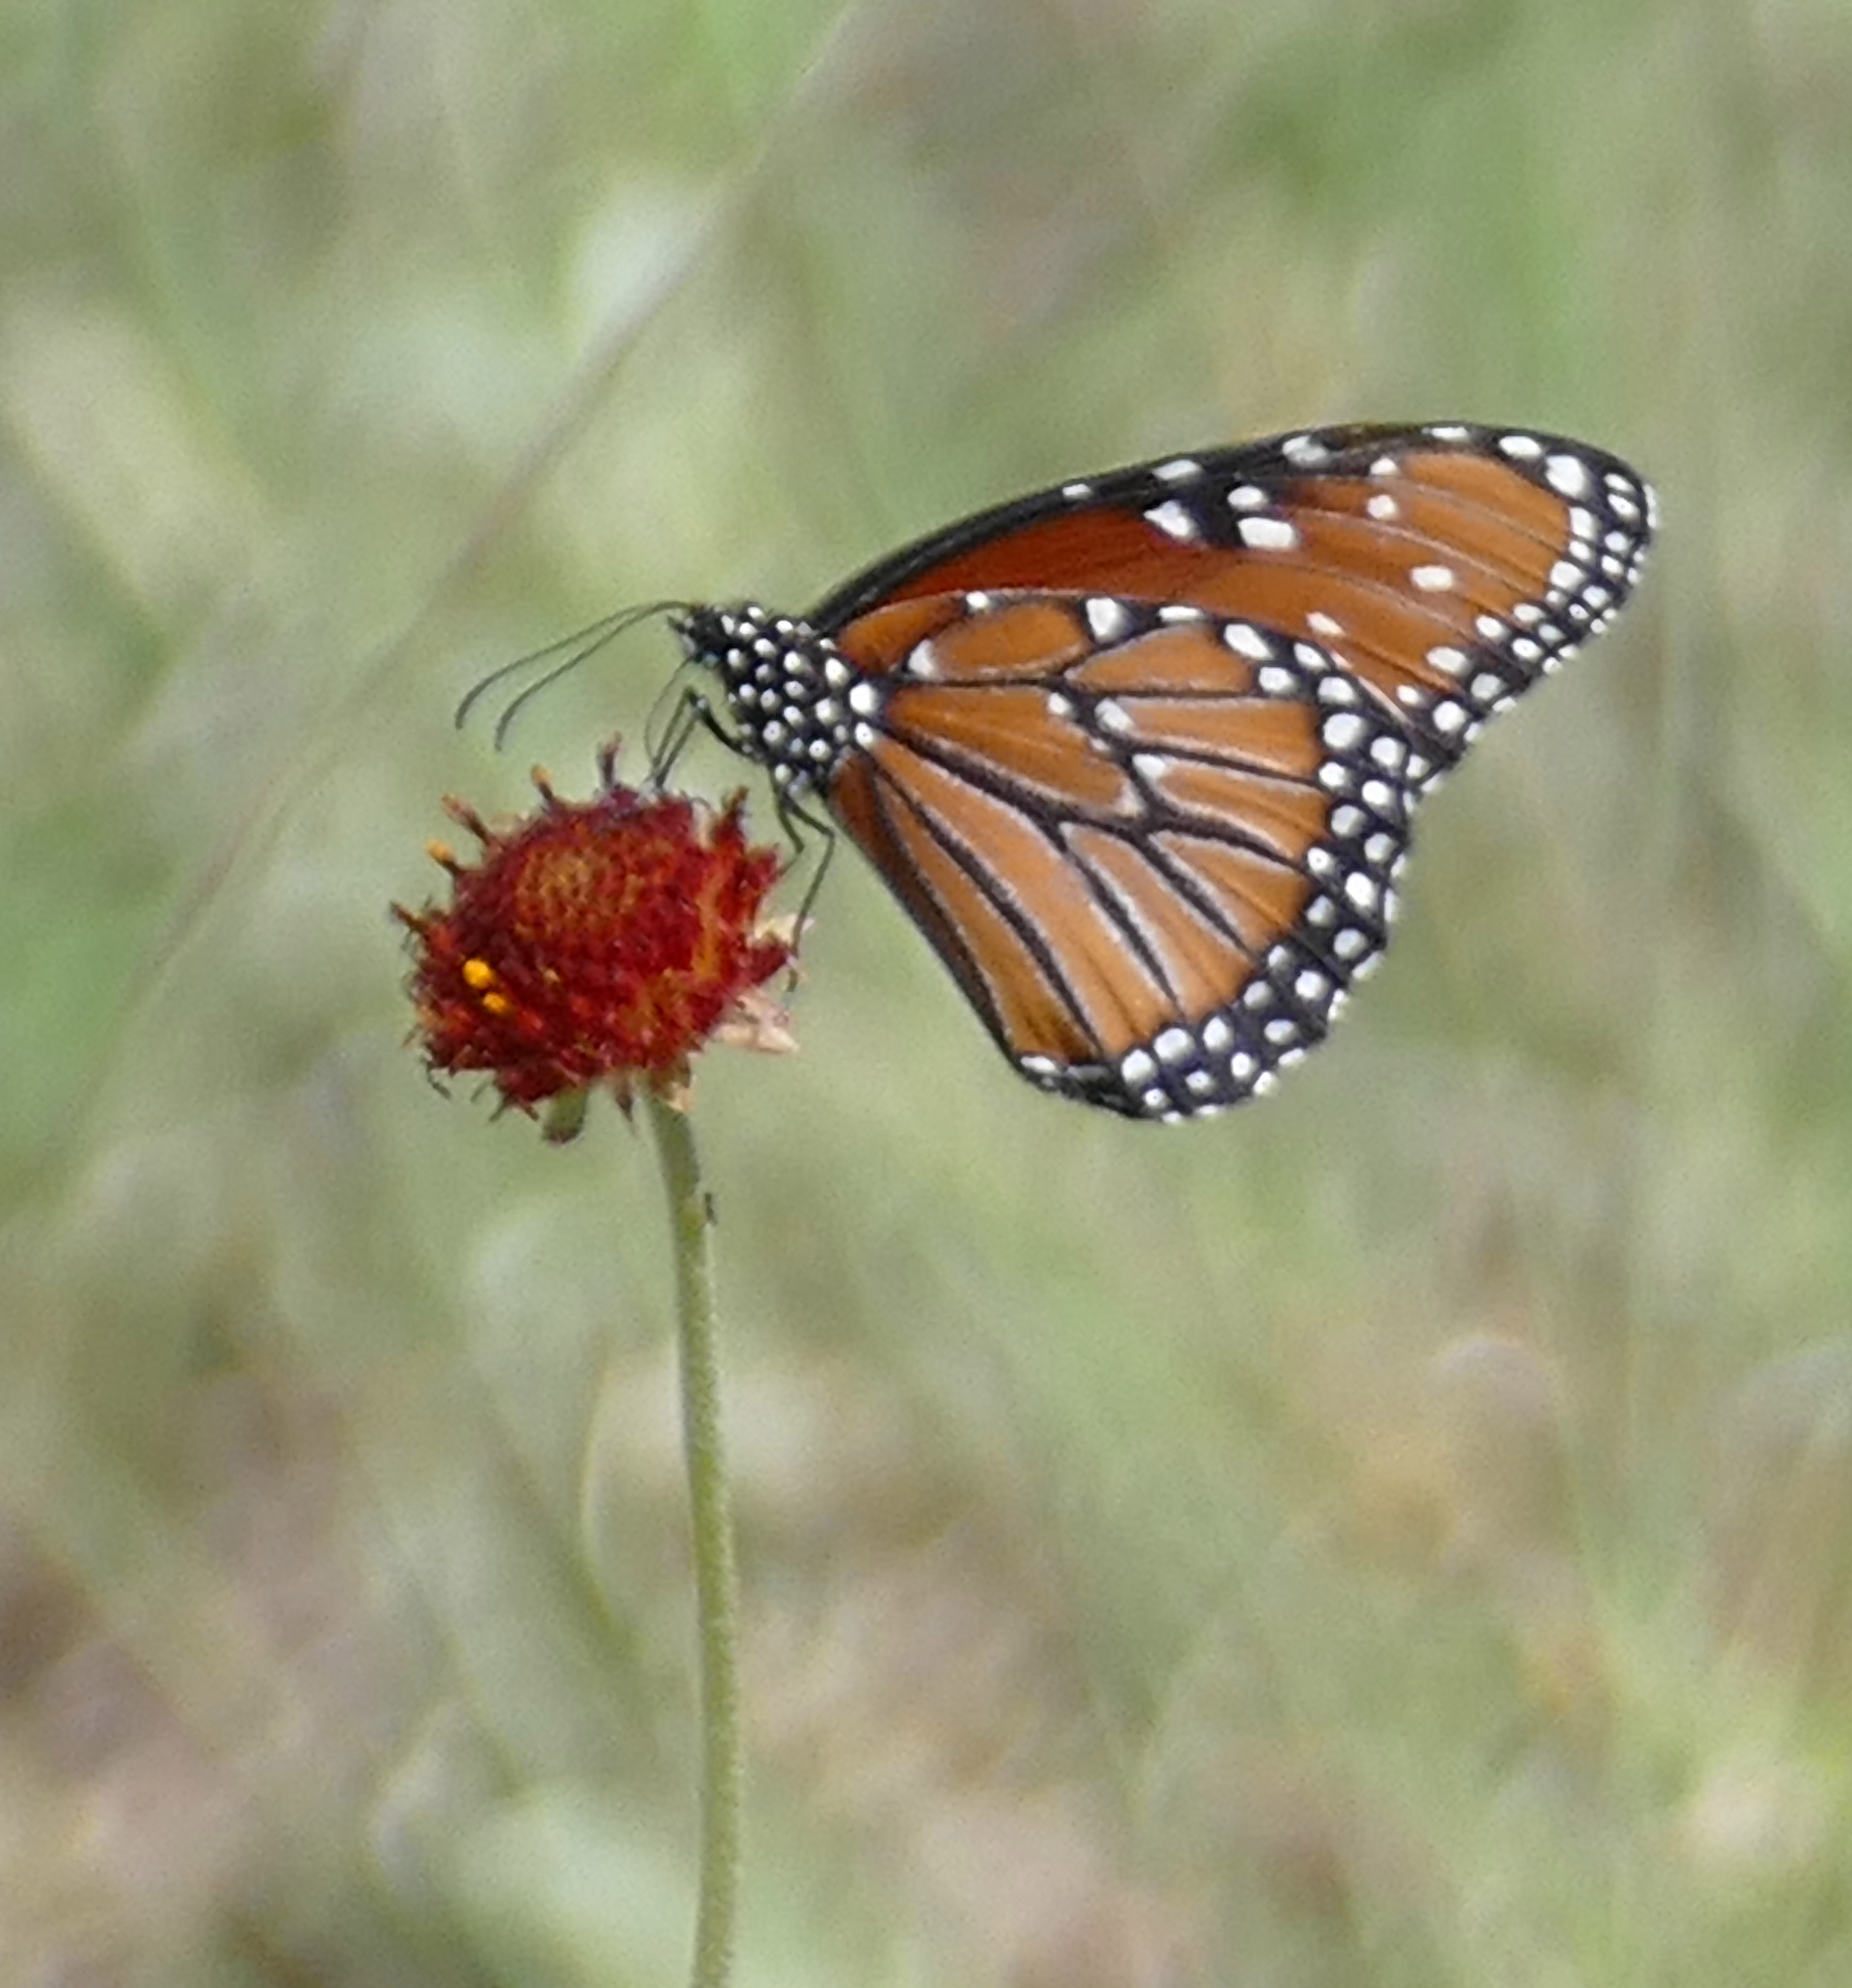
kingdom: Animalia
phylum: Arthropoda
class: Insecta
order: Lepidoptera
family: Nymphalidae
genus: Danaus
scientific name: Danaus gilippus
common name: Queen
